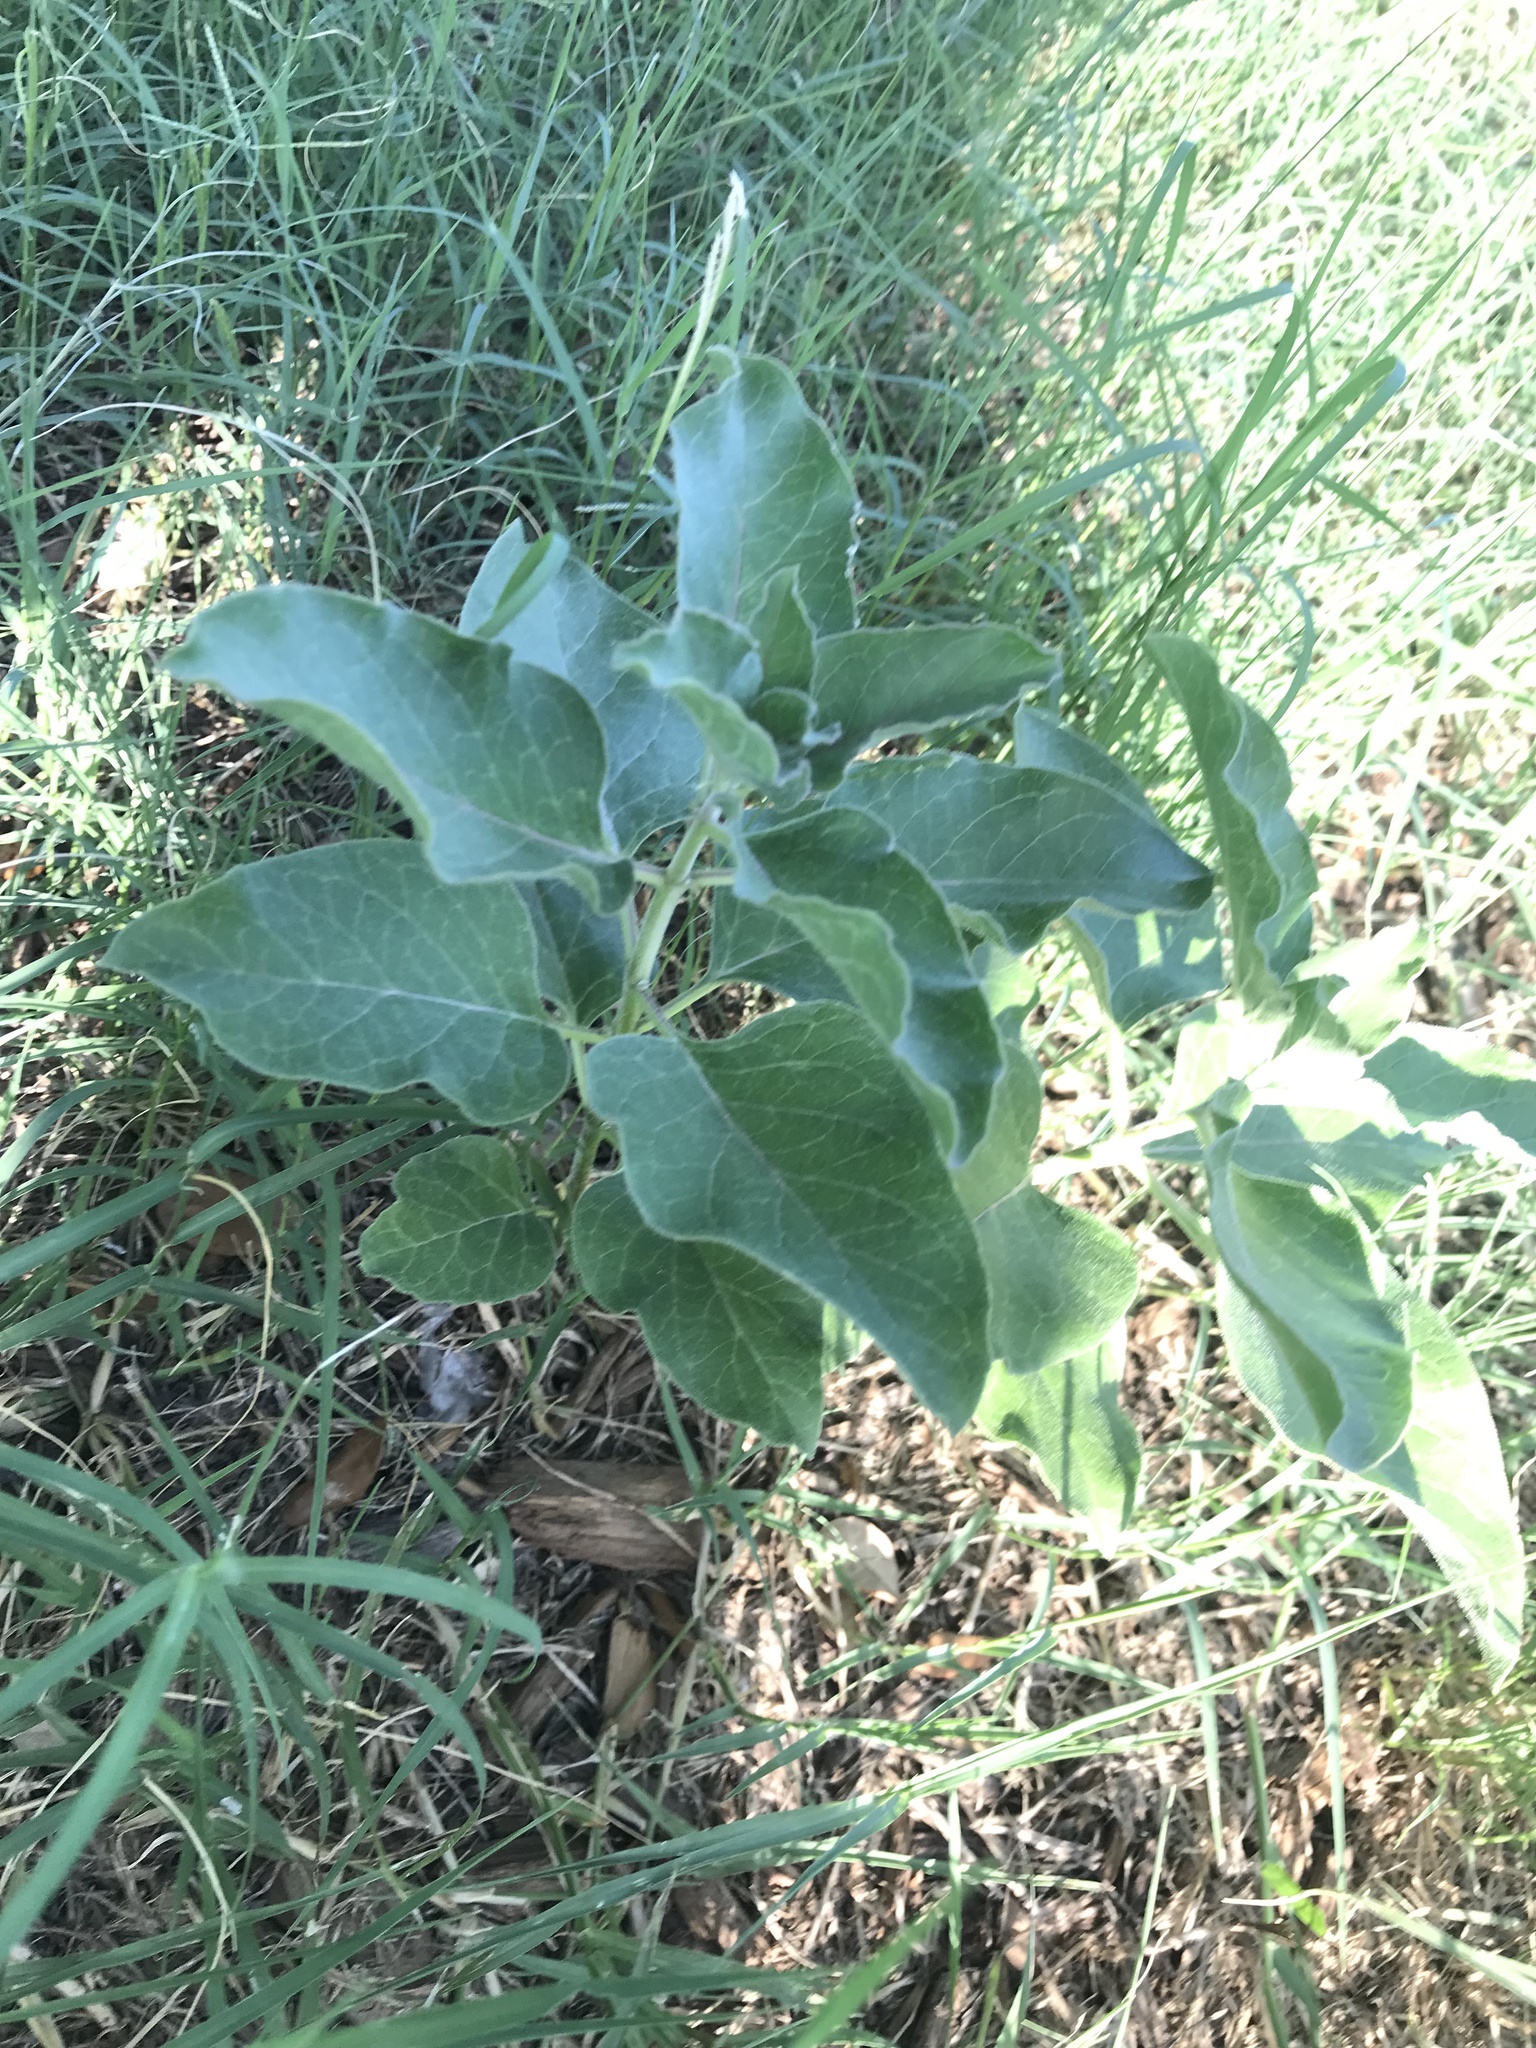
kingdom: Plantae
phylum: Tracheophyta
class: Magnoliopsida
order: Gentianales
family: Apocynaceae
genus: Asclepias
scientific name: Asclepias oenotheroides
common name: Zizotes milkweed
